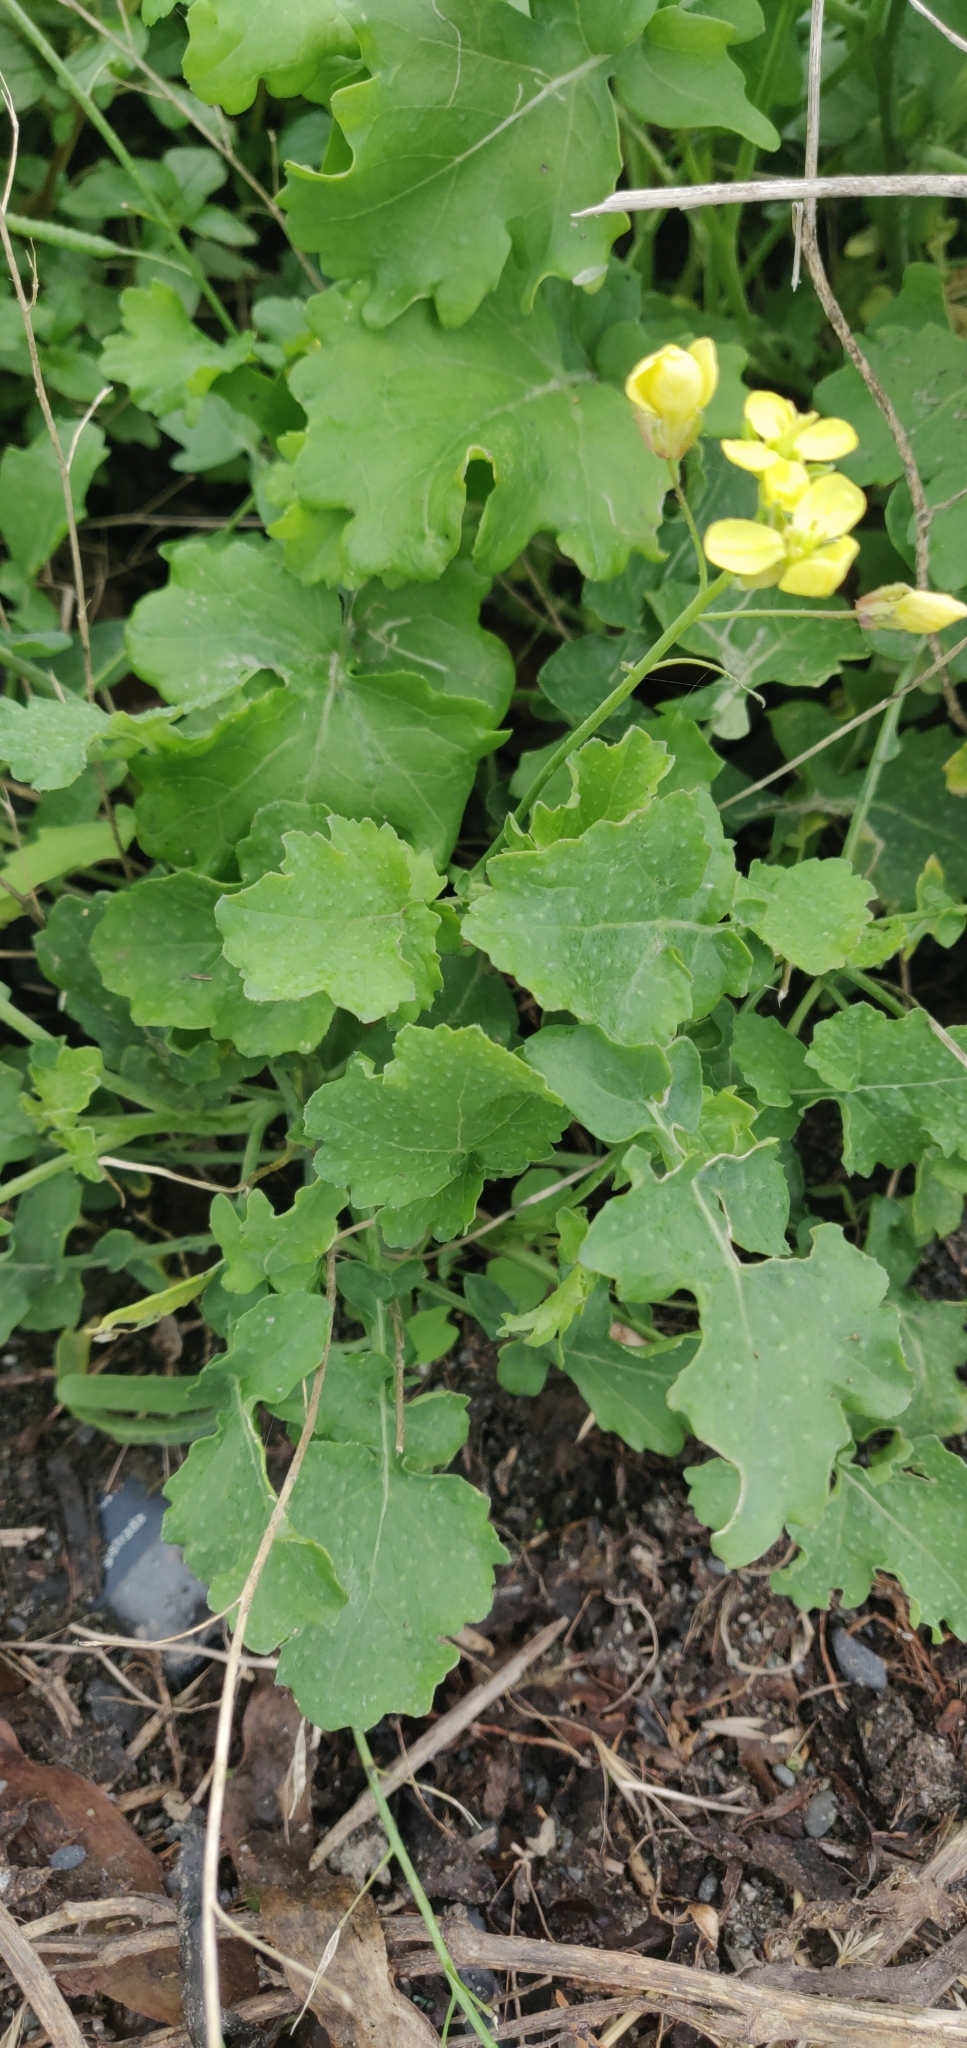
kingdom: Plantae
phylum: Tracheophyta
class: Magnoliopsida
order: Brassicales
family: Brassicaceae
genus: Raphanus
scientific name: Raphanus raphanistrum
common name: Wild radish
